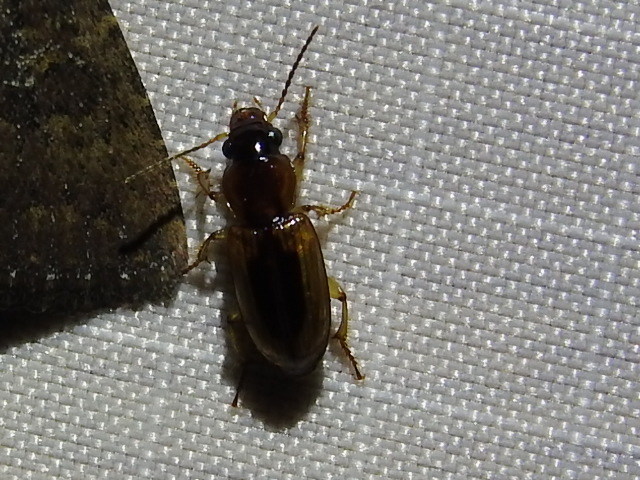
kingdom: Animalia
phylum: Arthropoda
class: Insecta
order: Coleoptera
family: Carabidae
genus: Stenolophus
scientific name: Stenolophus lecontei
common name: Leconte's seedcorn beetle
